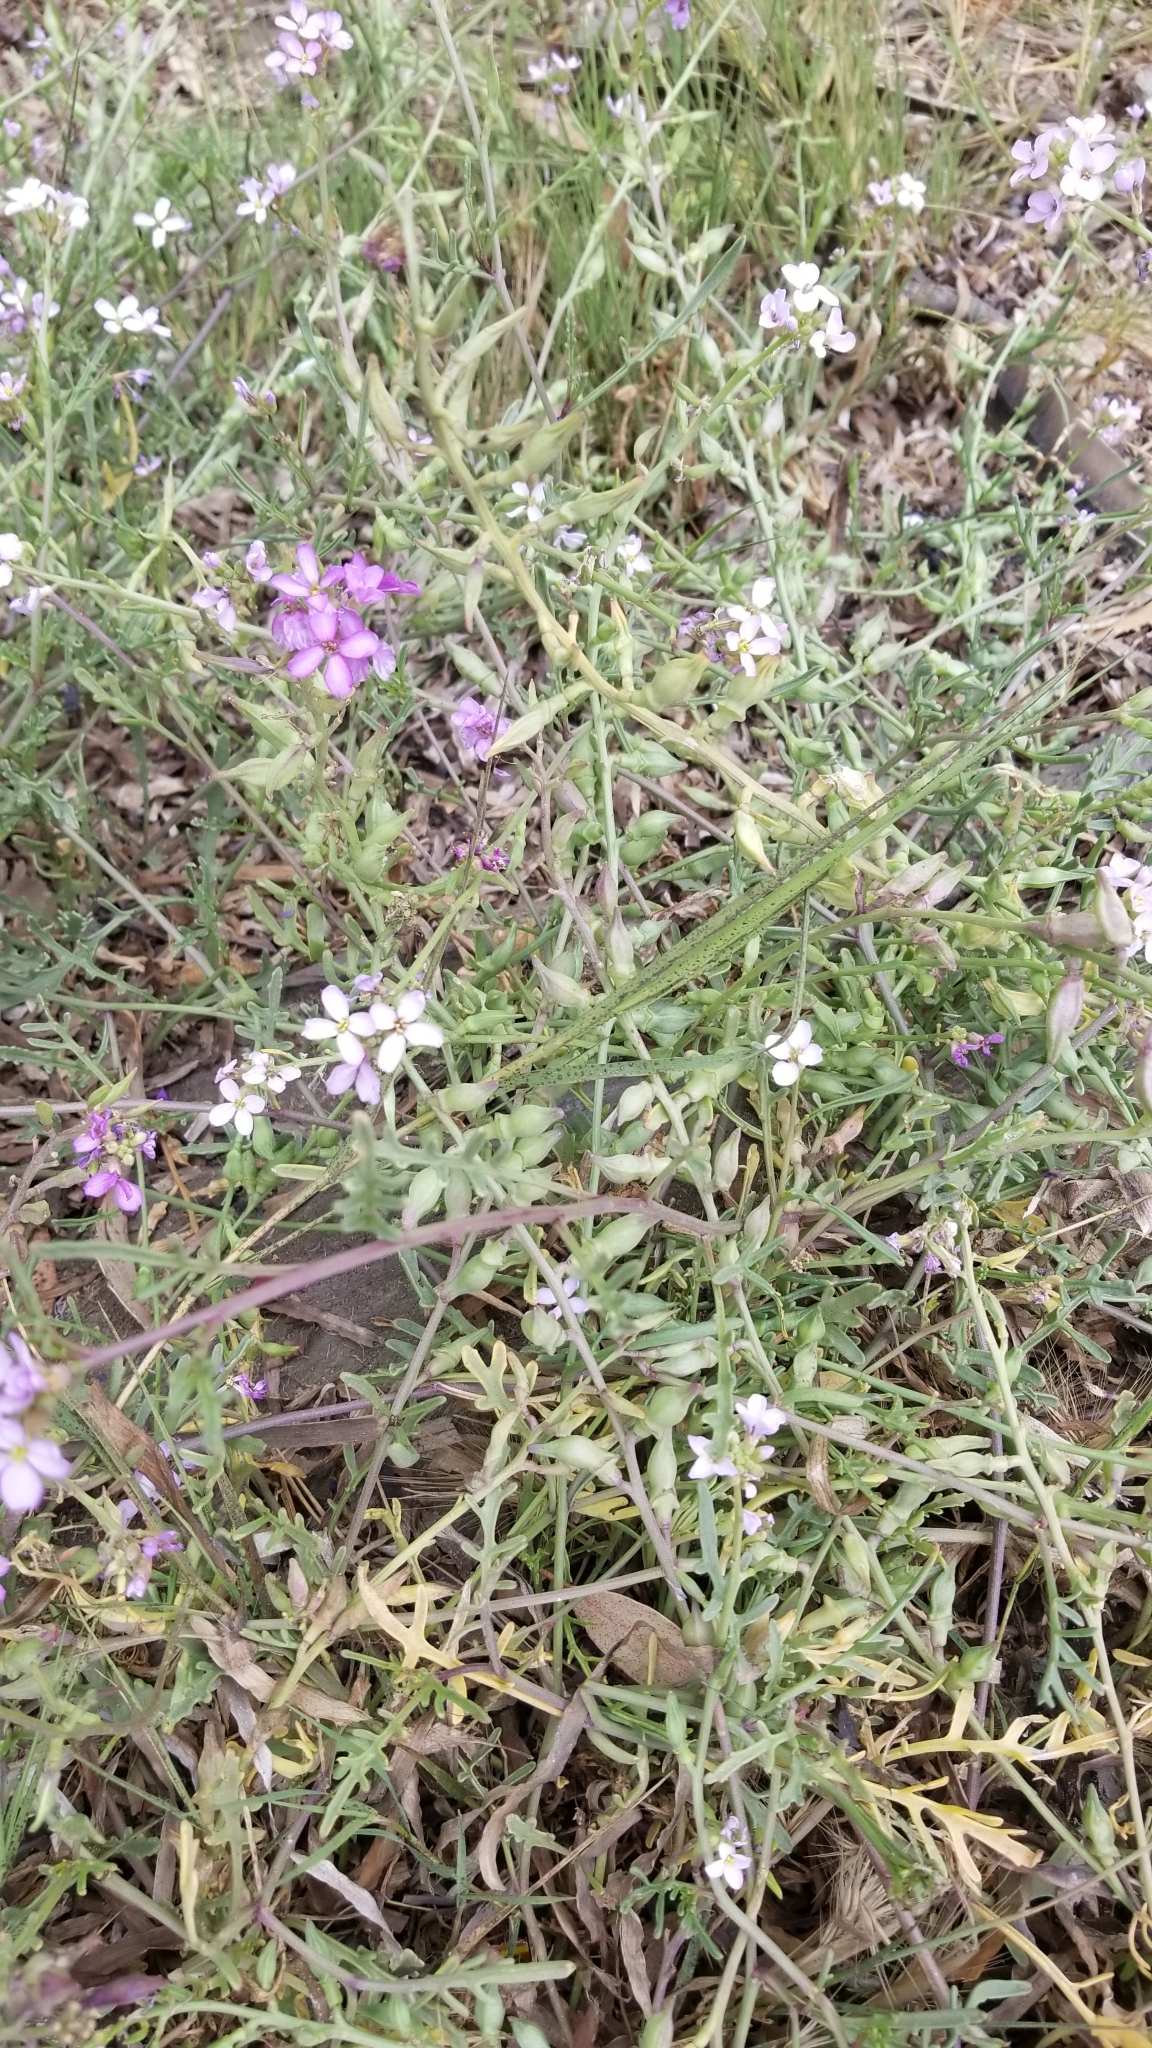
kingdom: Plantae
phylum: Tracheophyta
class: Magnoliopsida
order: Brassicales
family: Brassicaceae
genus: Cakile
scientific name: Cakile maritima
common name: Sea rocket
